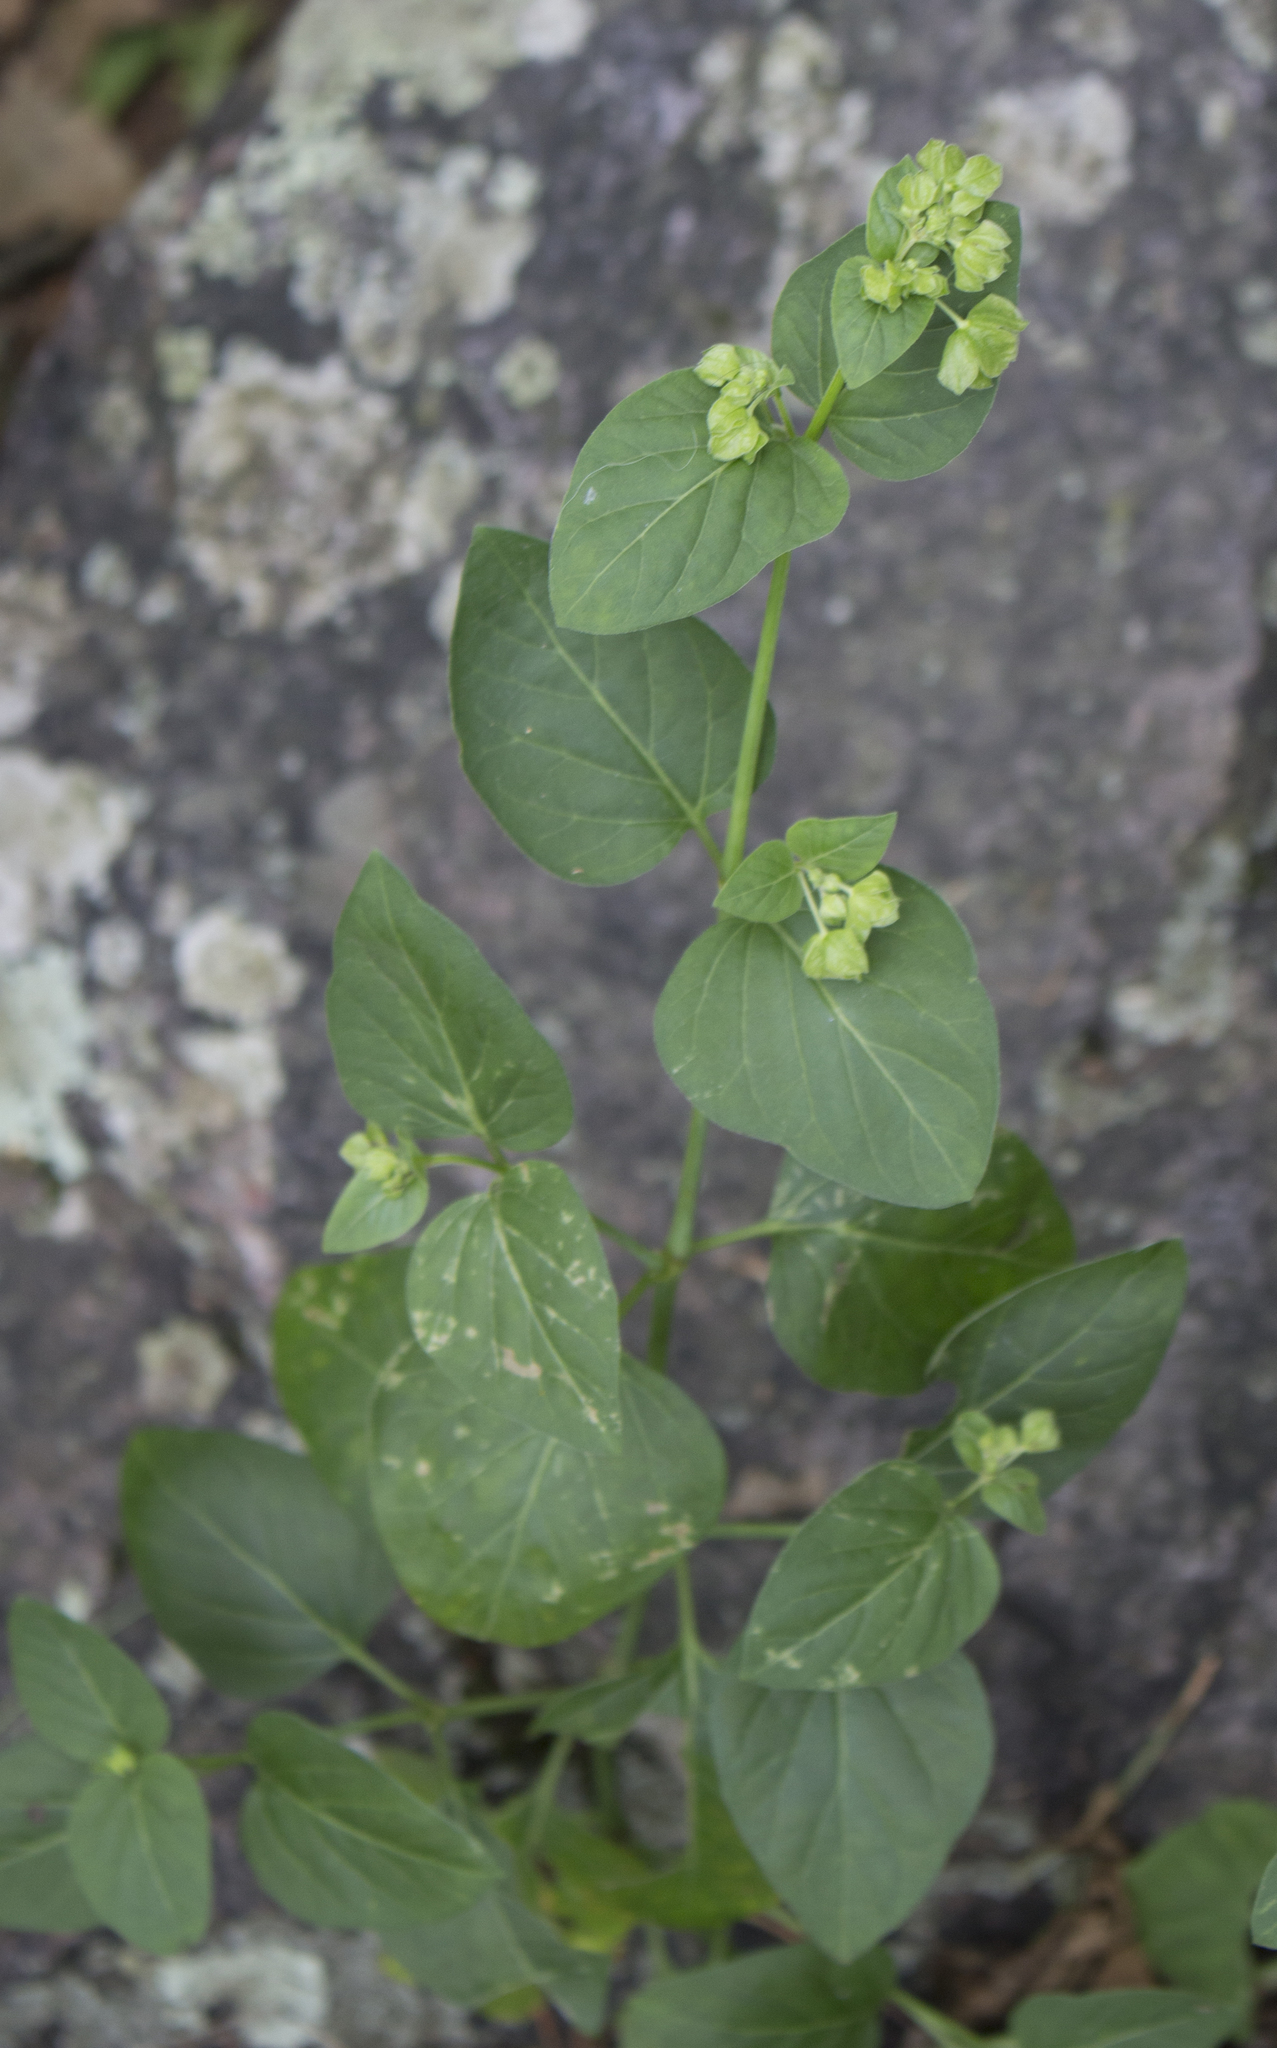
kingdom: Plantae
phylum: Tracheophyta
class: Magnoliopsida
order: Caryophyllales
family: Nyctaginaceae
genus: Mirabilis
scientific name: Mirabilis nyctaginea
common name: Umbrella wort
